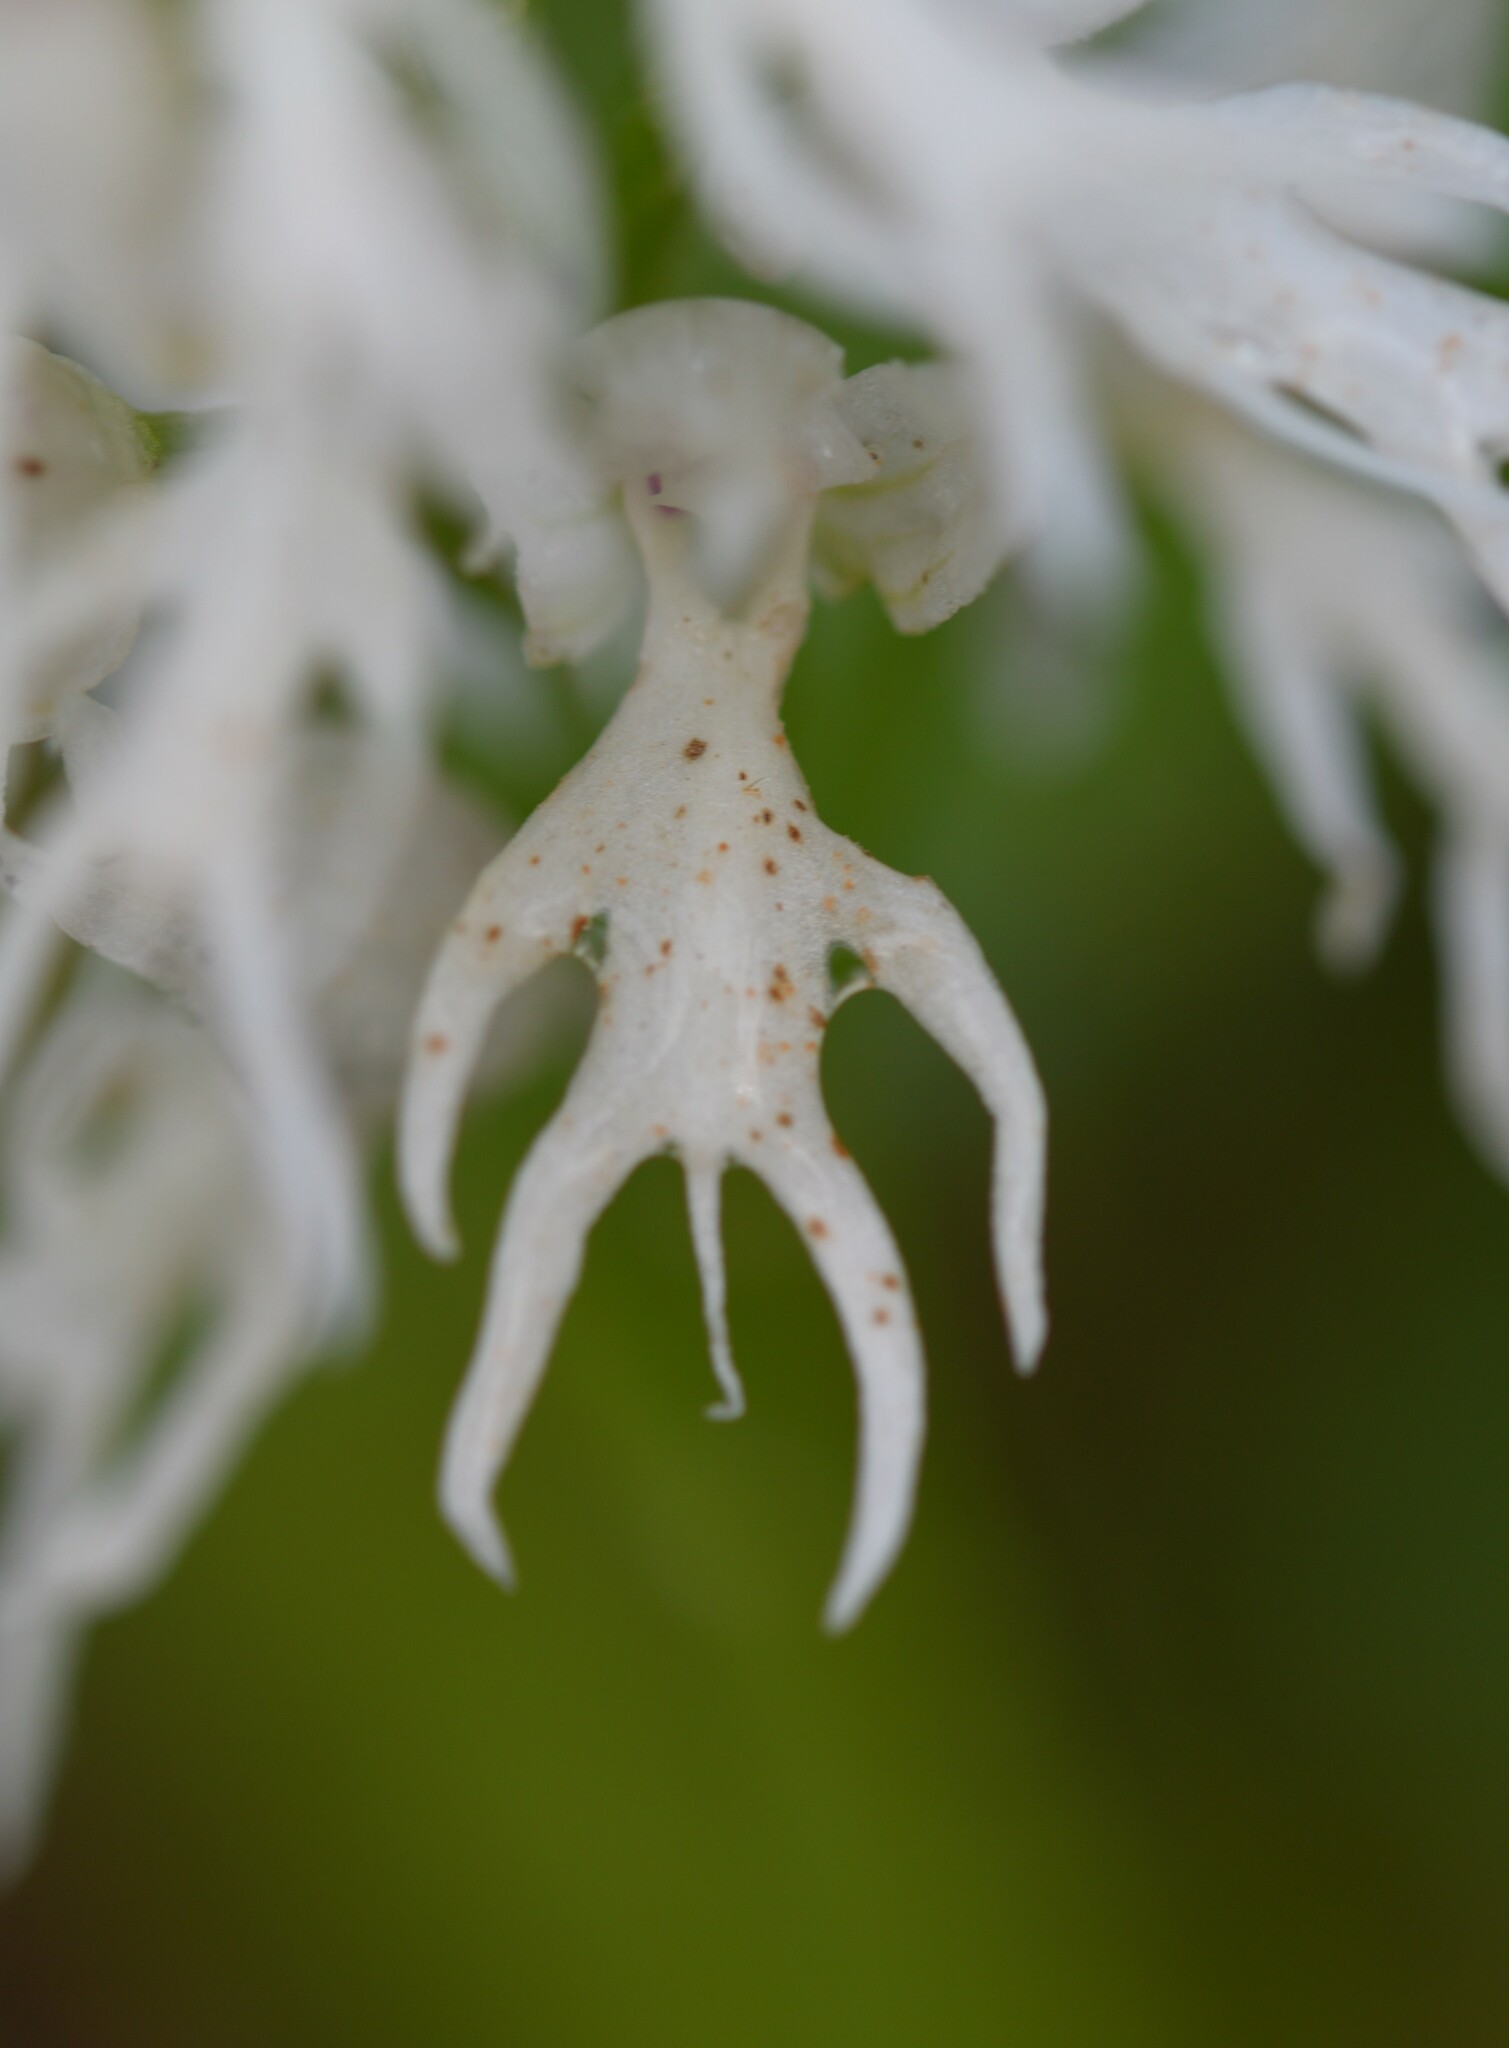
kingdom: Plantae
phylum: Tracheophyta
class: Liliopsida
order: Asparagales
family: Orchidaceae
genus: Orchis
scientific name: Orchis italica
